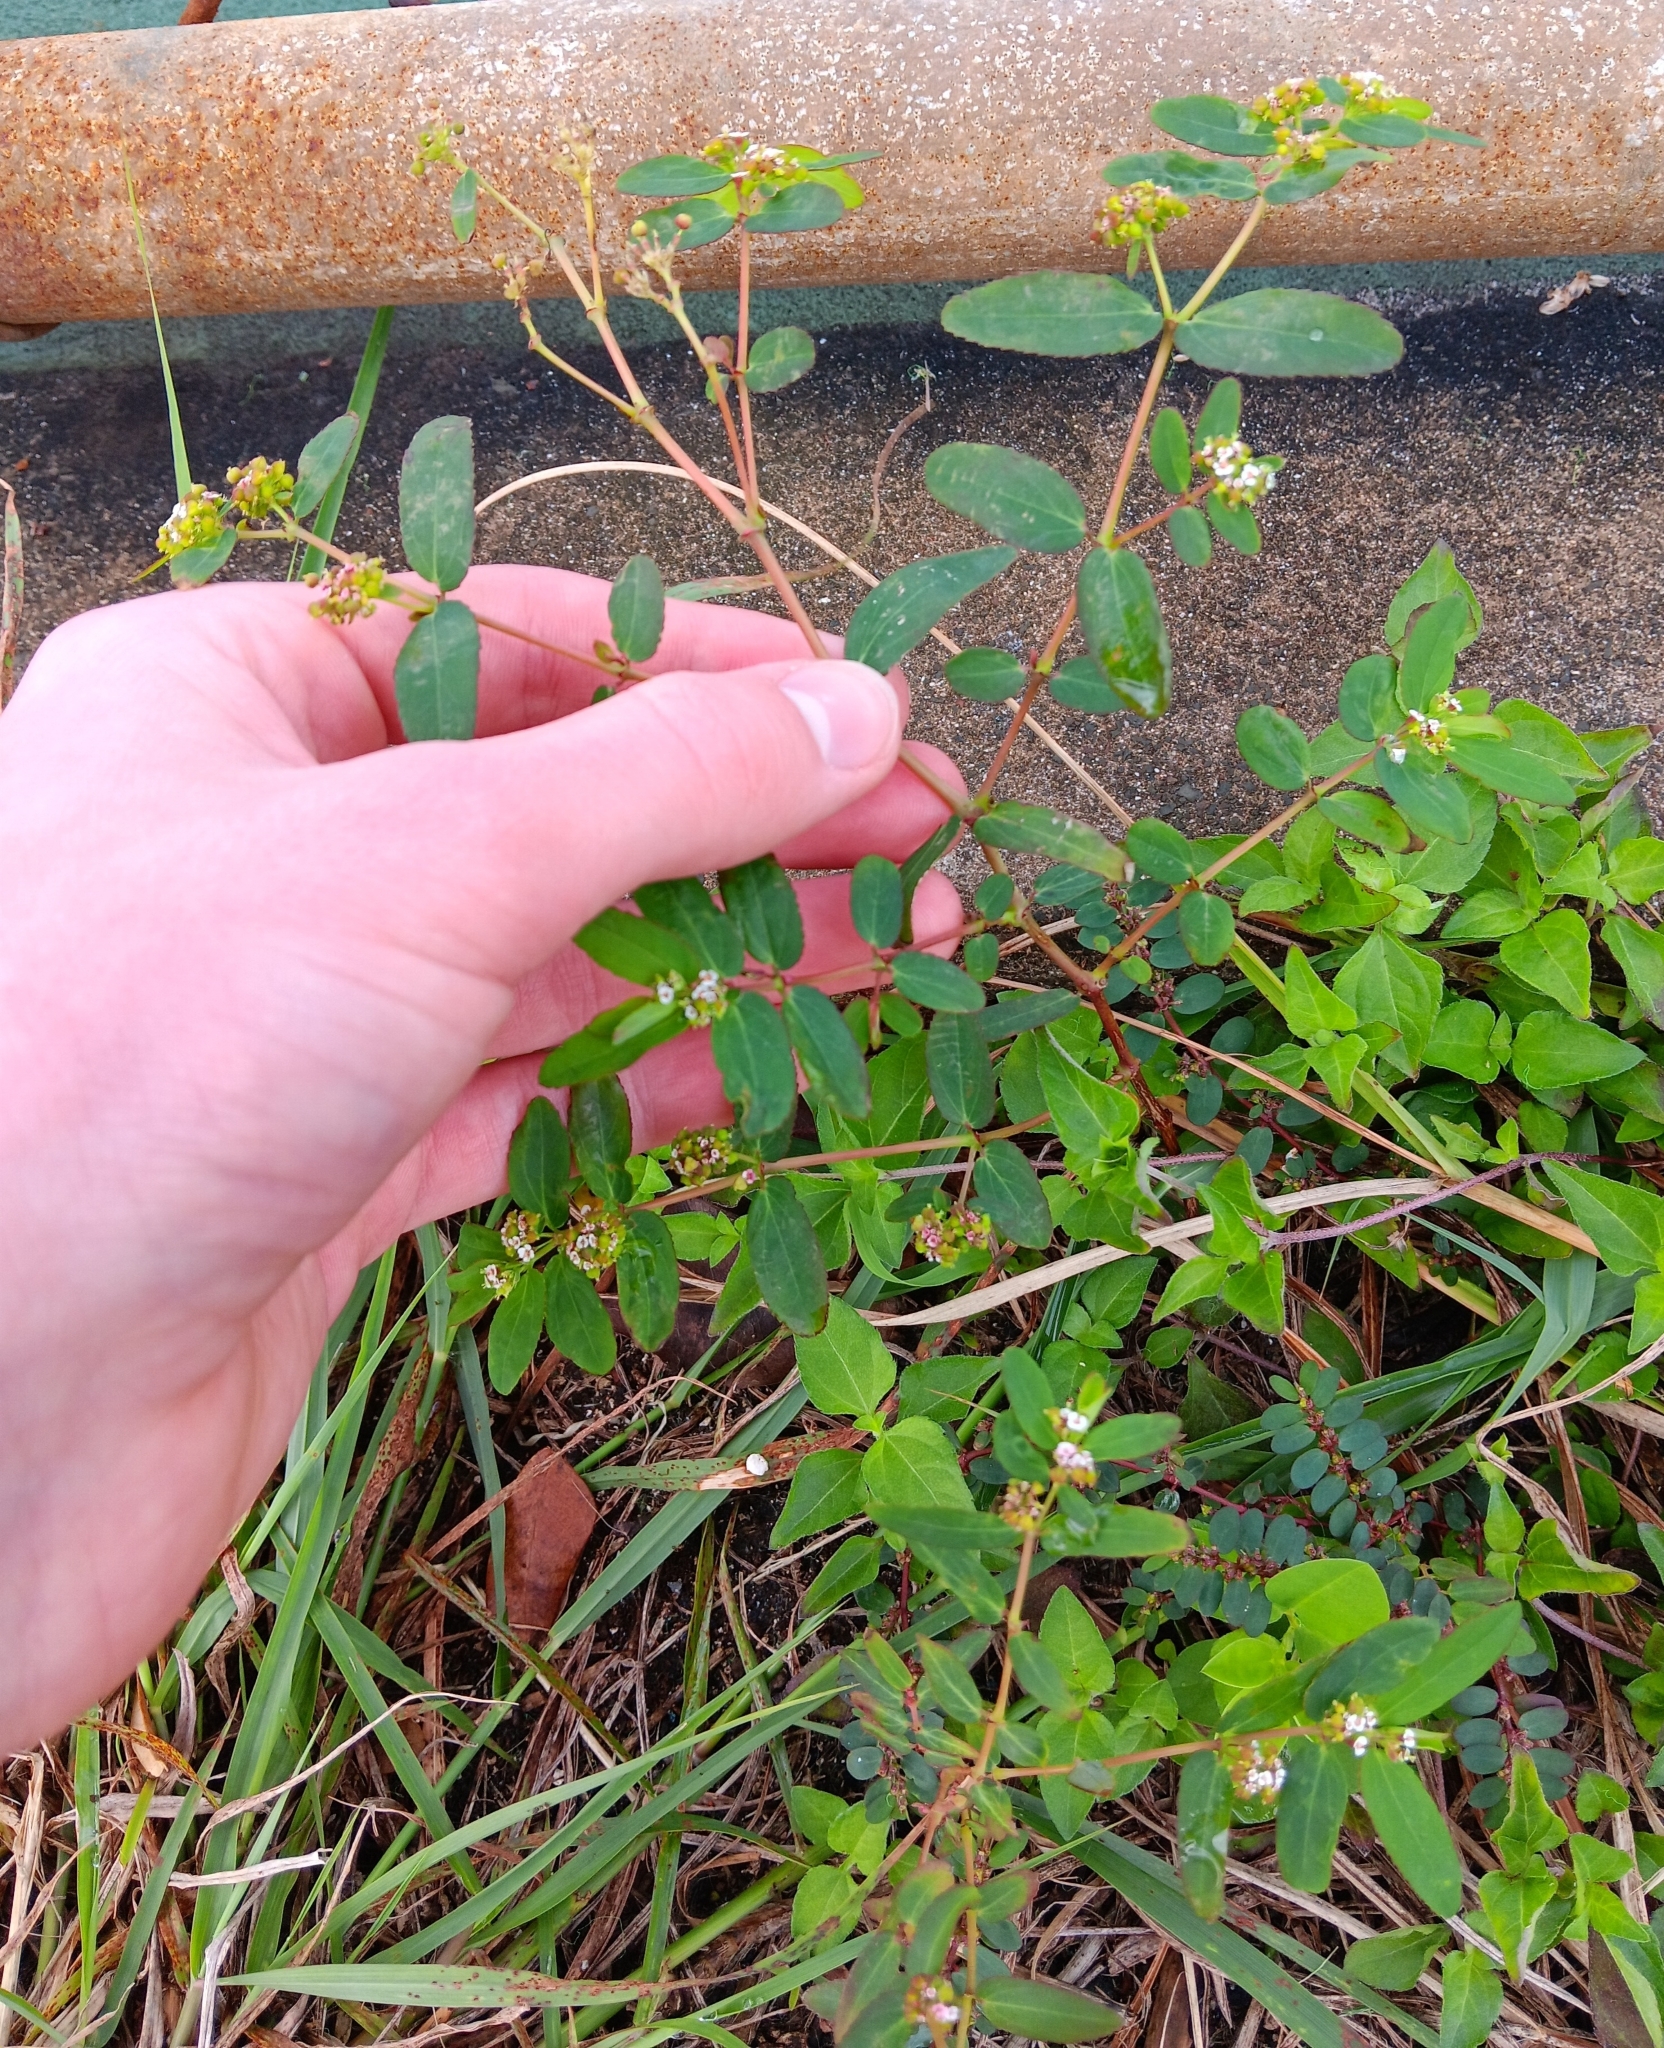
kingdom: Plantae
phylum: Tracheophyta
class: Magnoliopsida
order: Malpighiales
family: Euphorbiaceae
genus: Euphorbia
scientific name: Euphorbia hypericifolia
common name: Graceful sandmat
